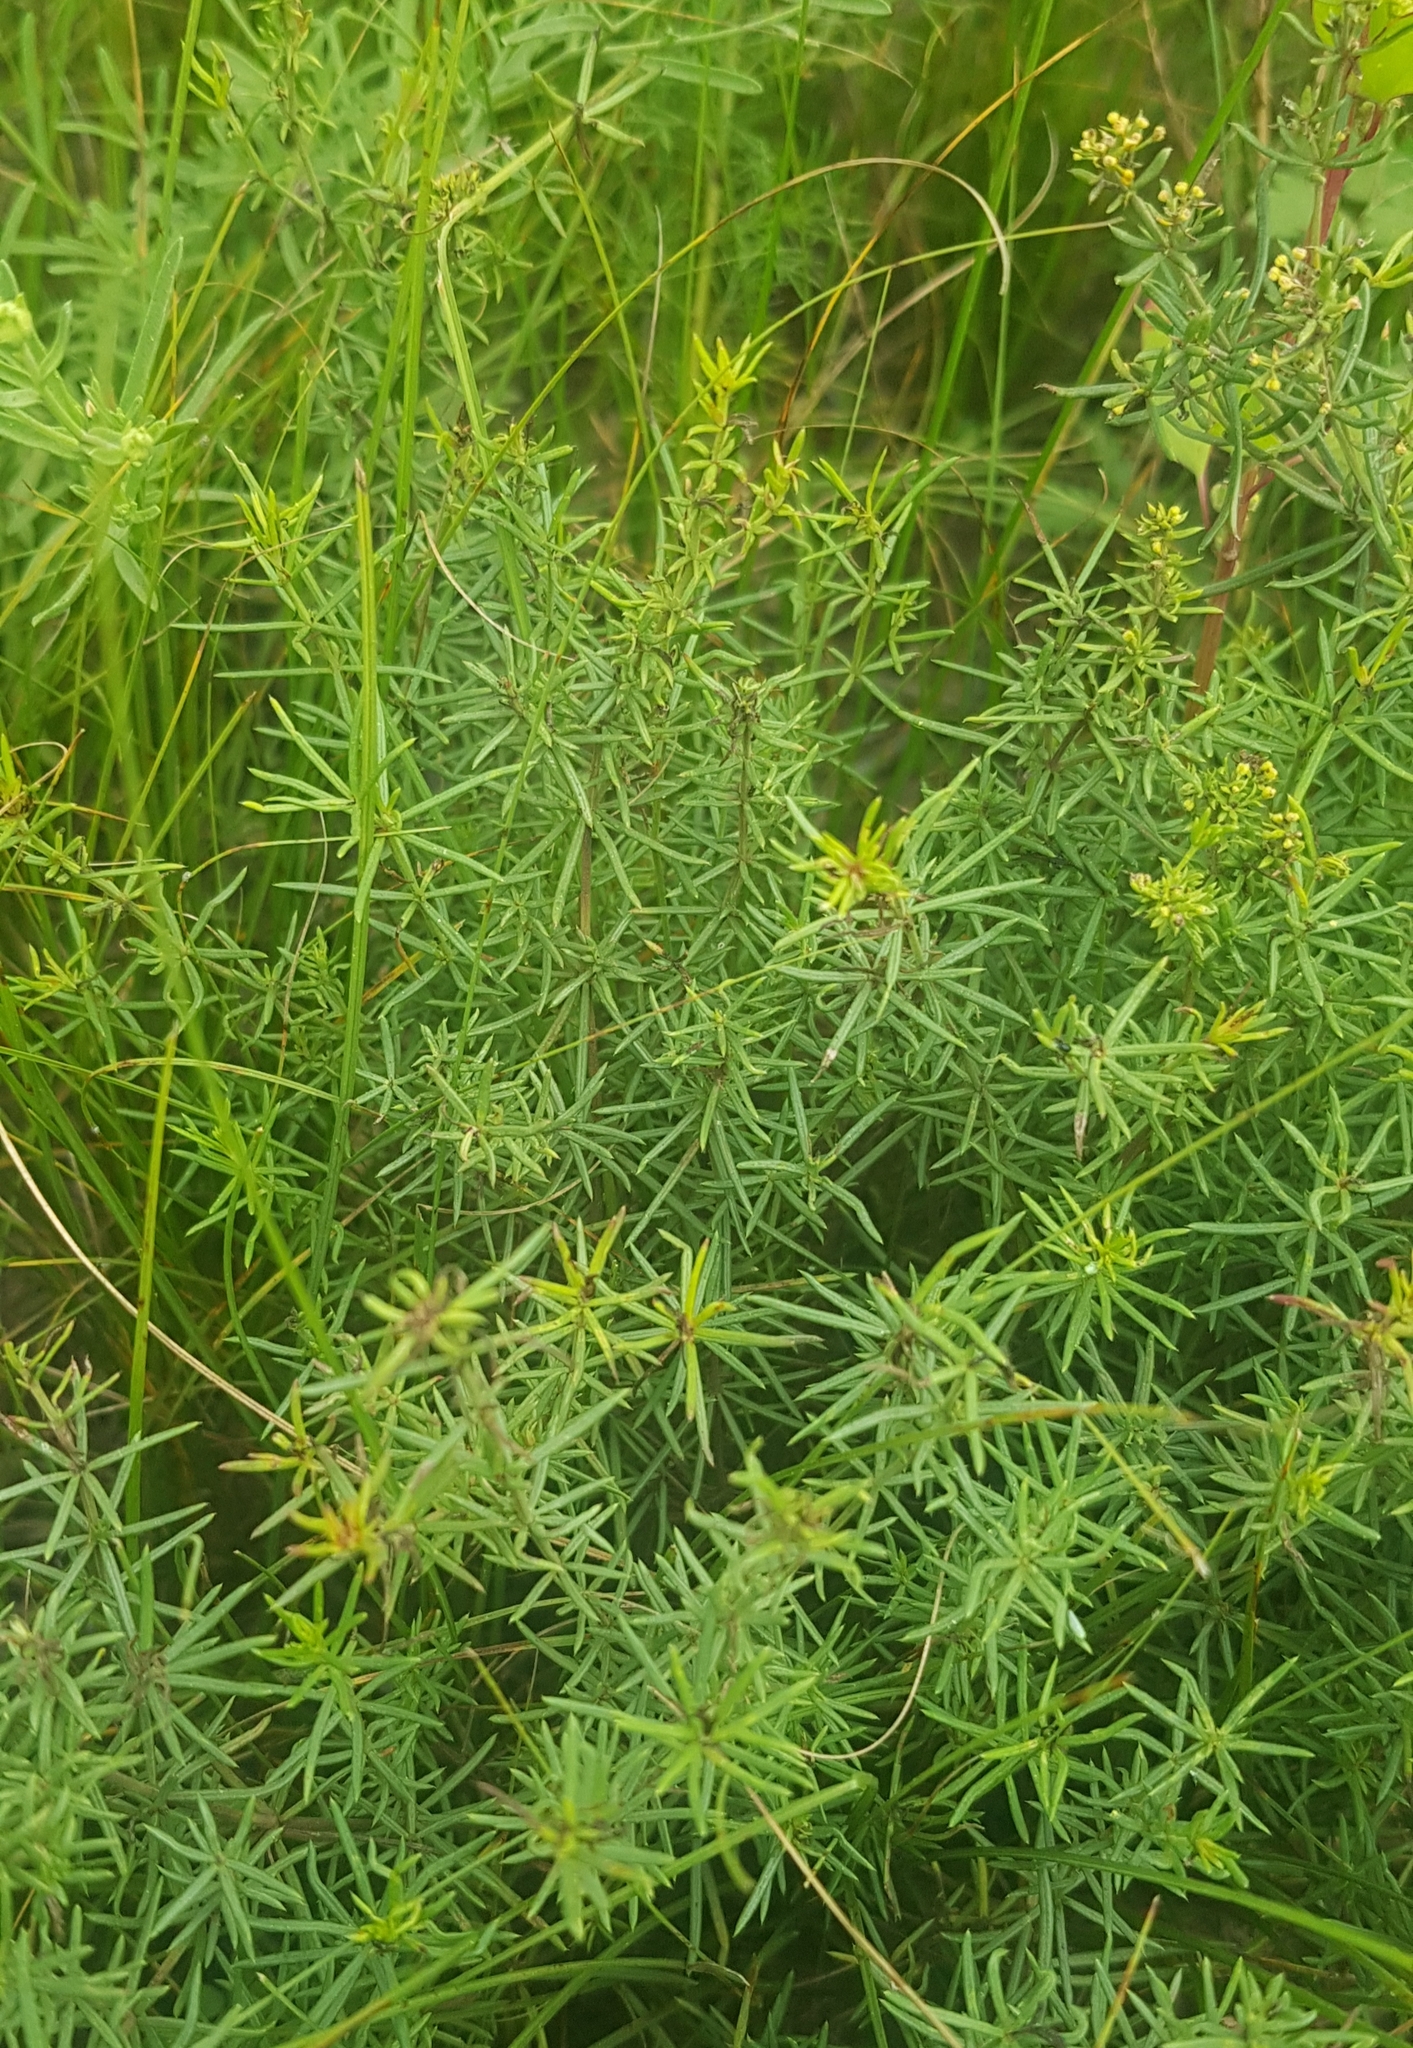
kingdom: Plantae
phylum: Tracheophyta
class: Magnoliopsida
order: Gentianales
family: Rubiaceae
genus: Galium
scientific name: Galium verum
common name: Lady's bedstraw
